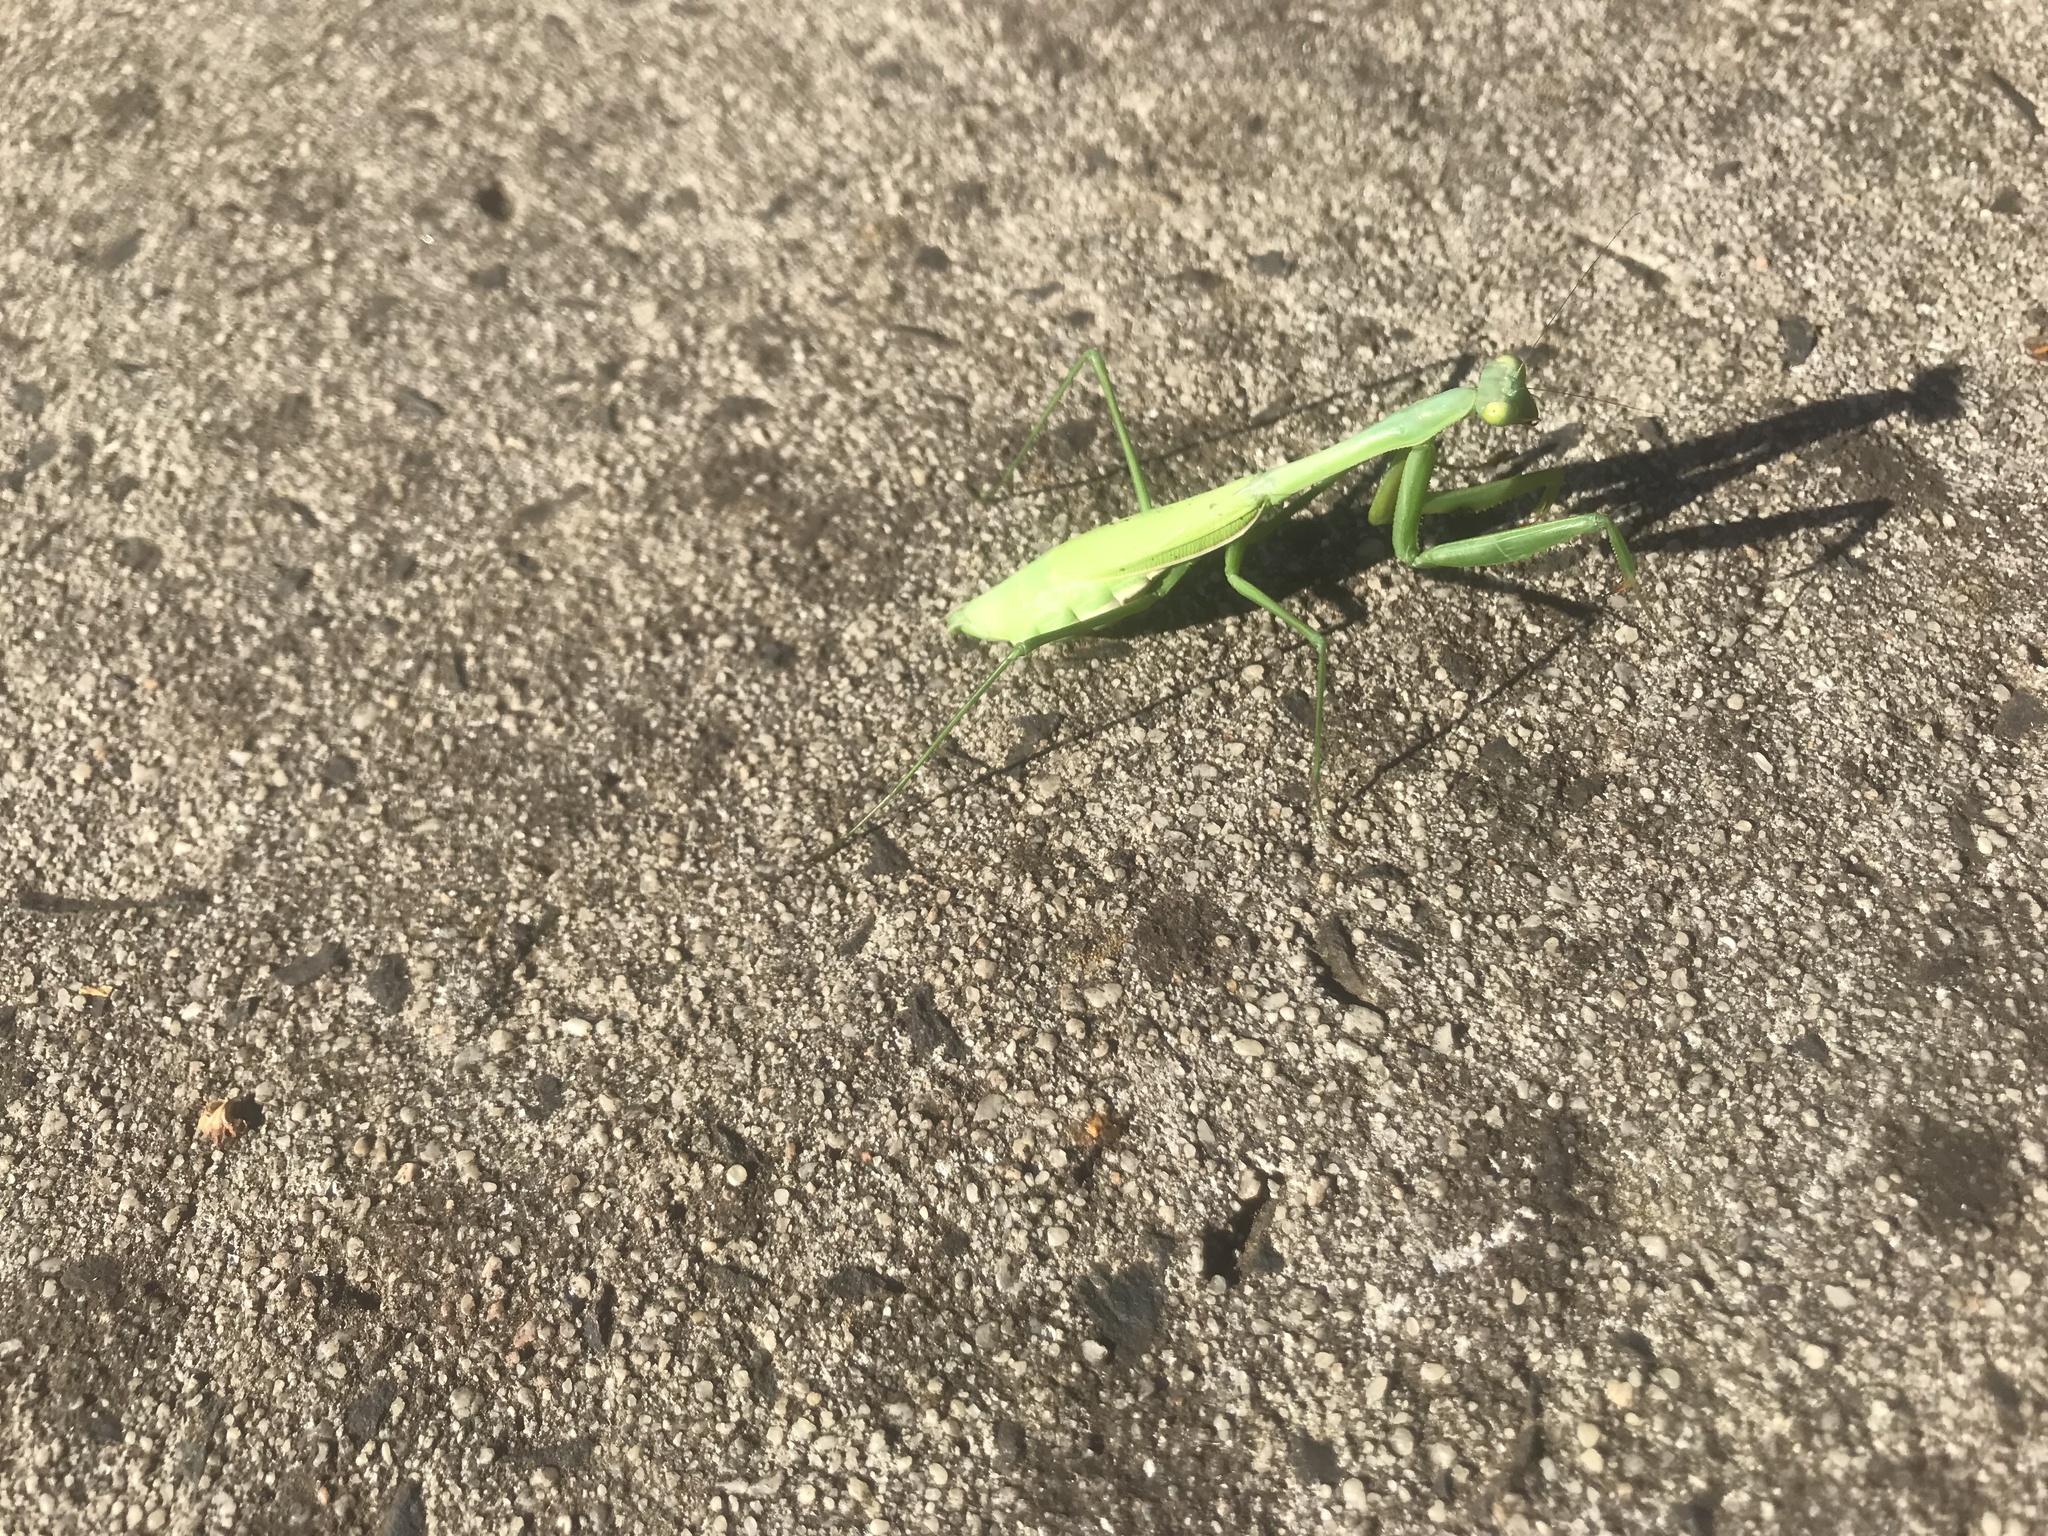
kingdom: Animalia
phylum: Arthropoda
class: Insecta
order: Mantodea
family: Mantidae
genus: Pseudomantis
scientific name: Pseudomantis albofimbriata
